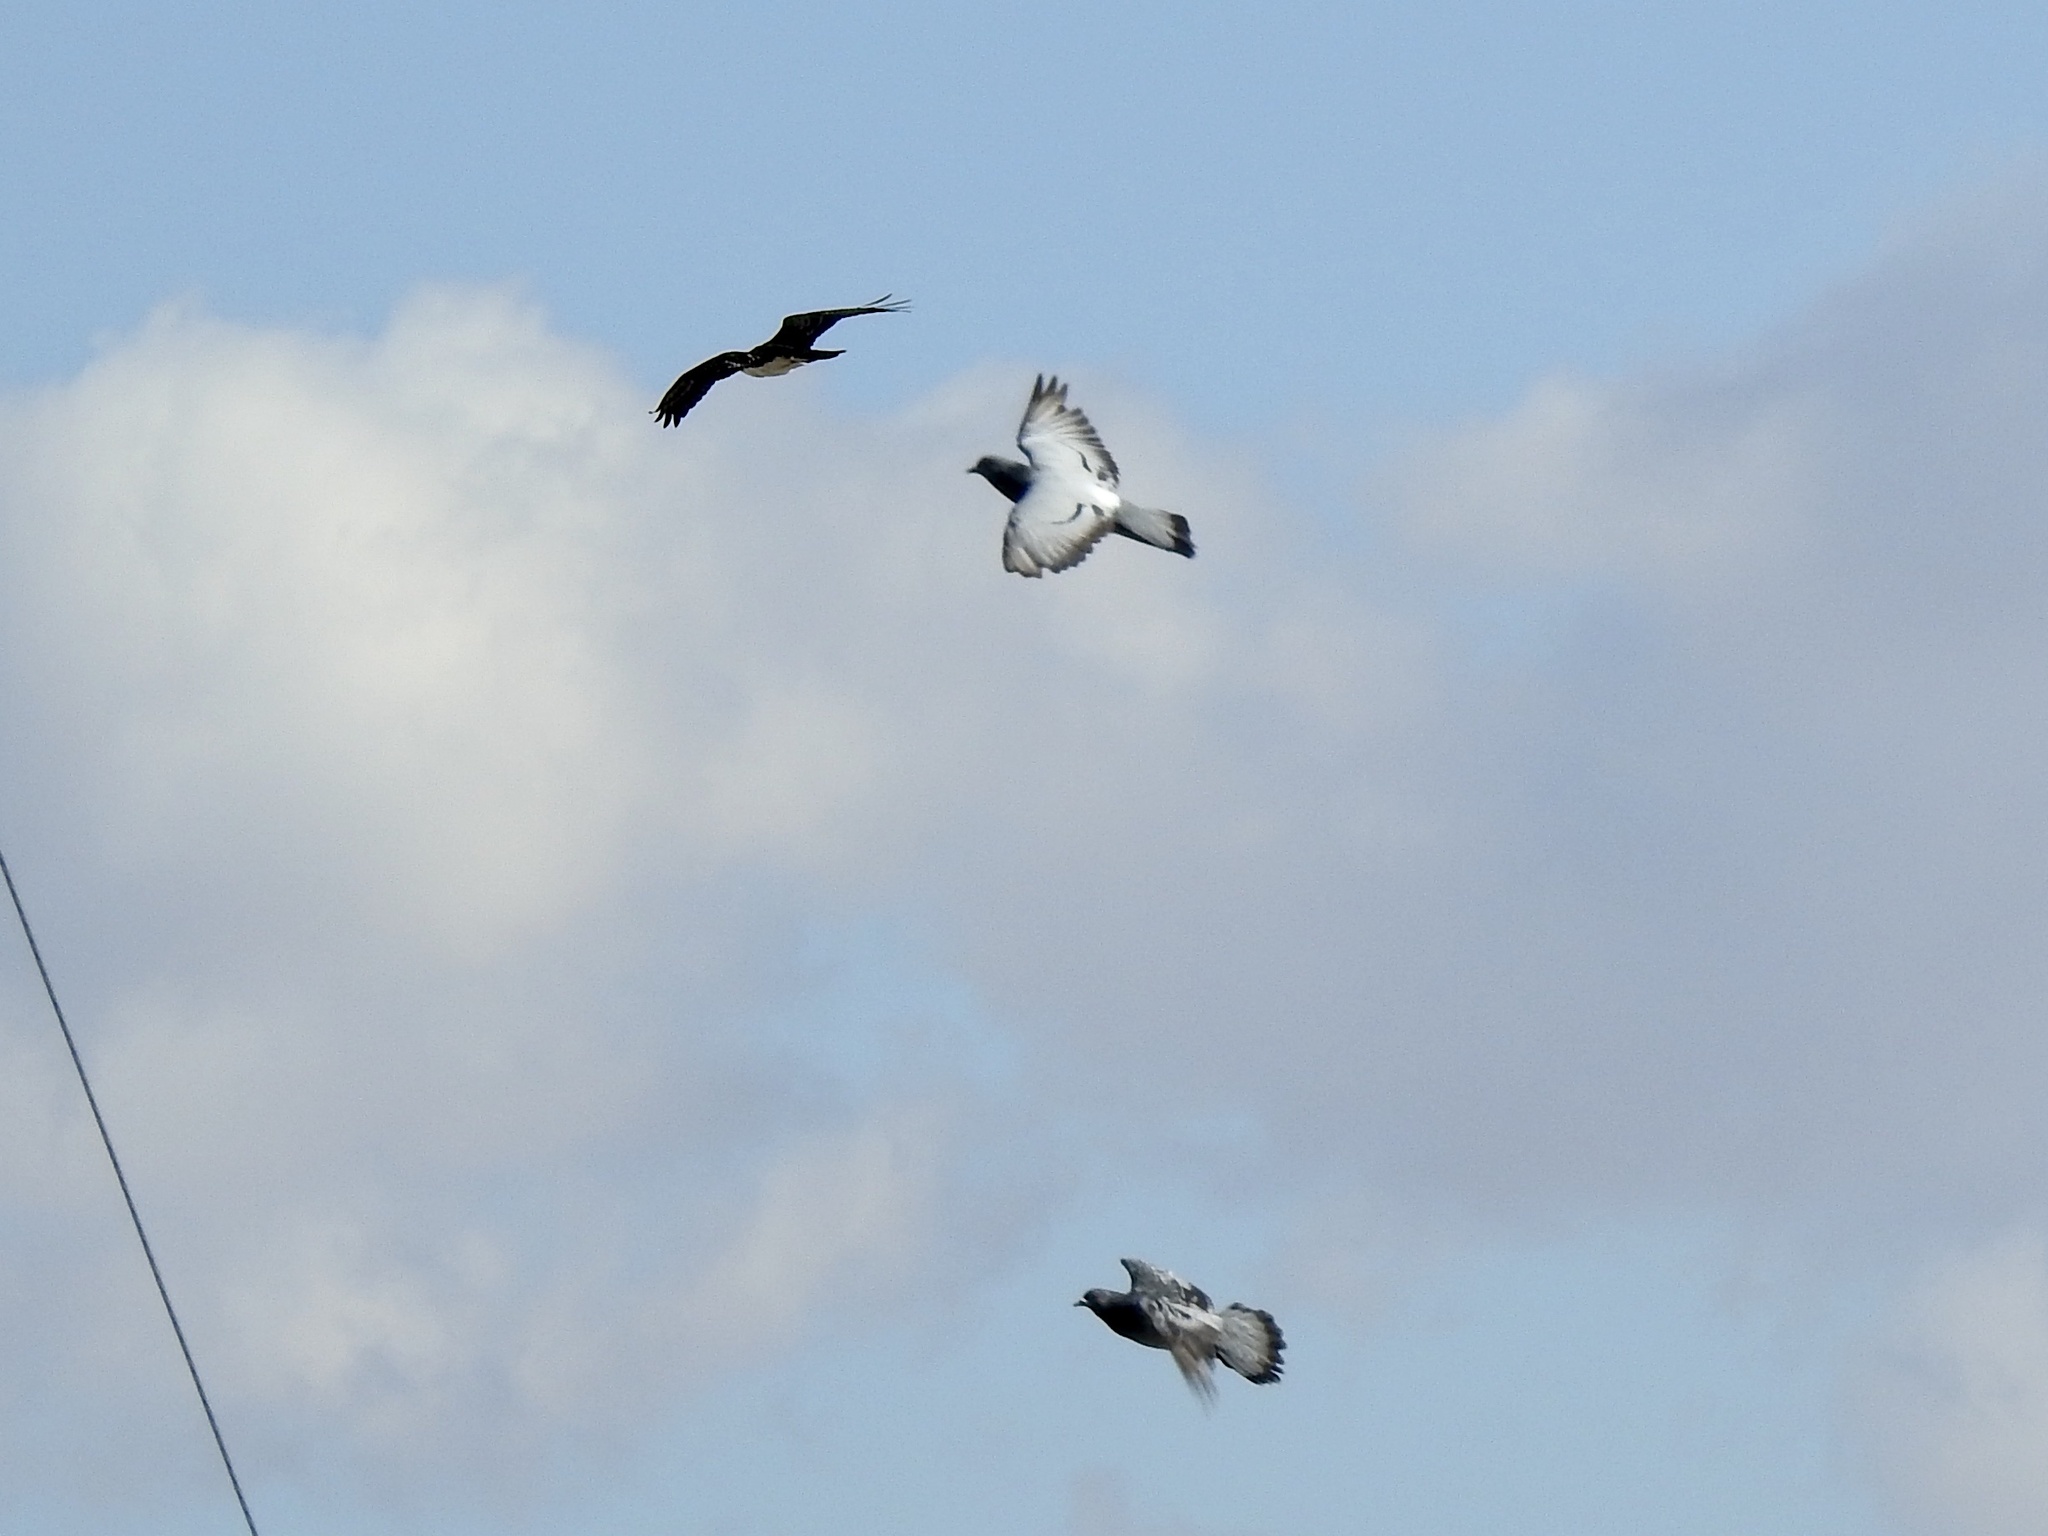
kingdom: Animalia
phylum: Chordata
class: Aves
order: Columbiformes
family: Columbidae
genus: Columba
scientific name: Columba livia
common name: Rock pigeon
